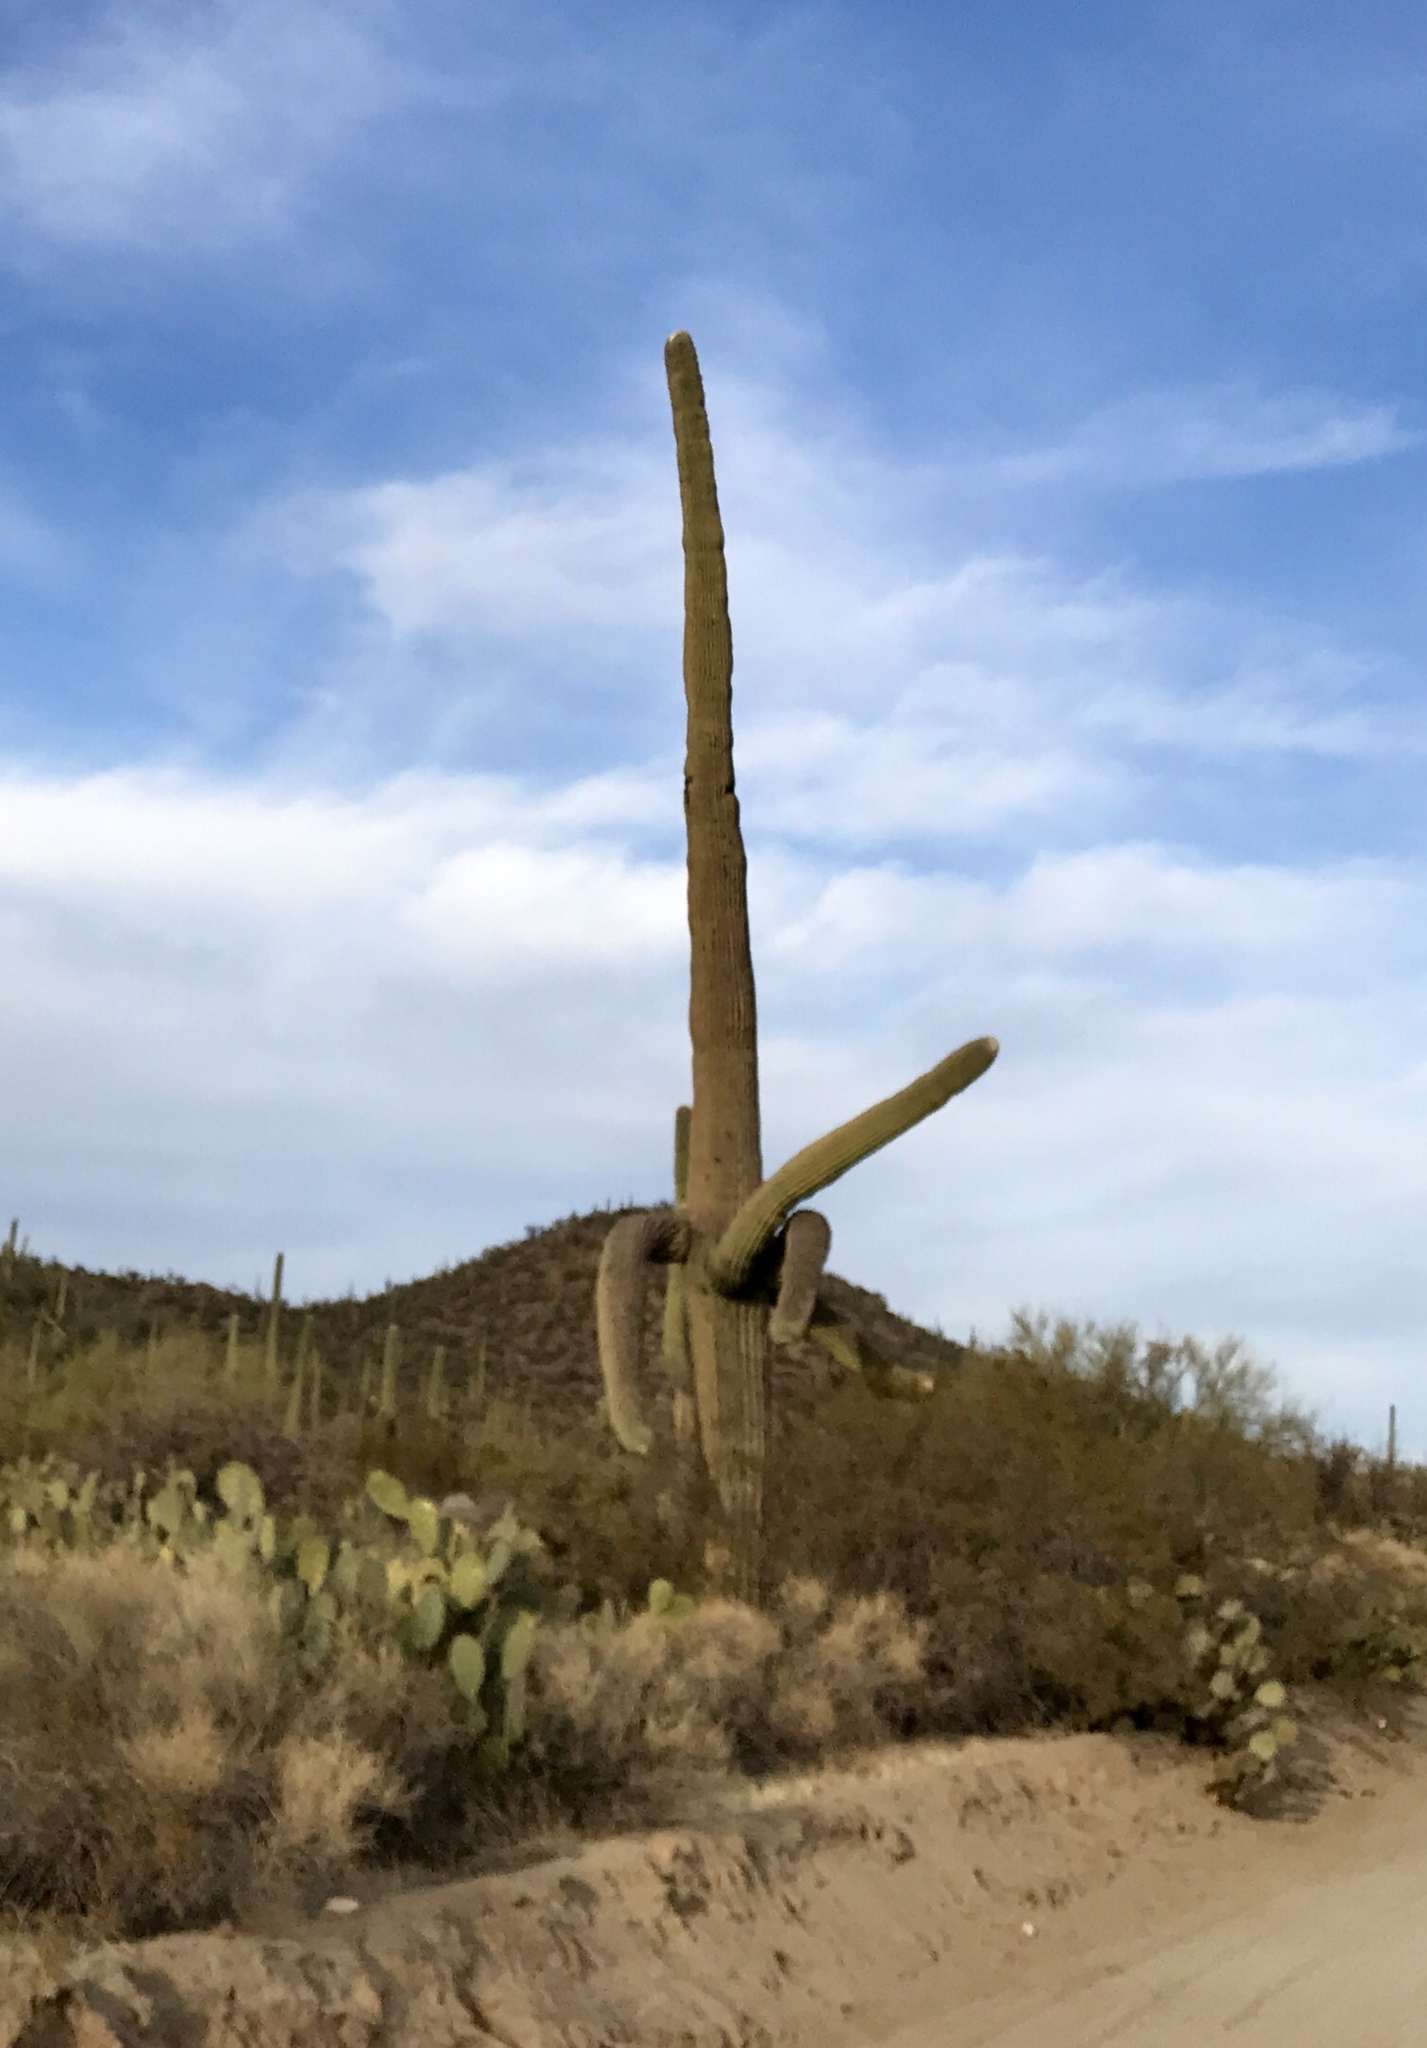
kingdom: Plantae
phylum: Tracheophyta
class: Magnoliopsida
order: Caryophyllales
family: Cactaceae
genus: Carnegiea
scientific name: Carnegiea gigantea
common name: Saguaro
